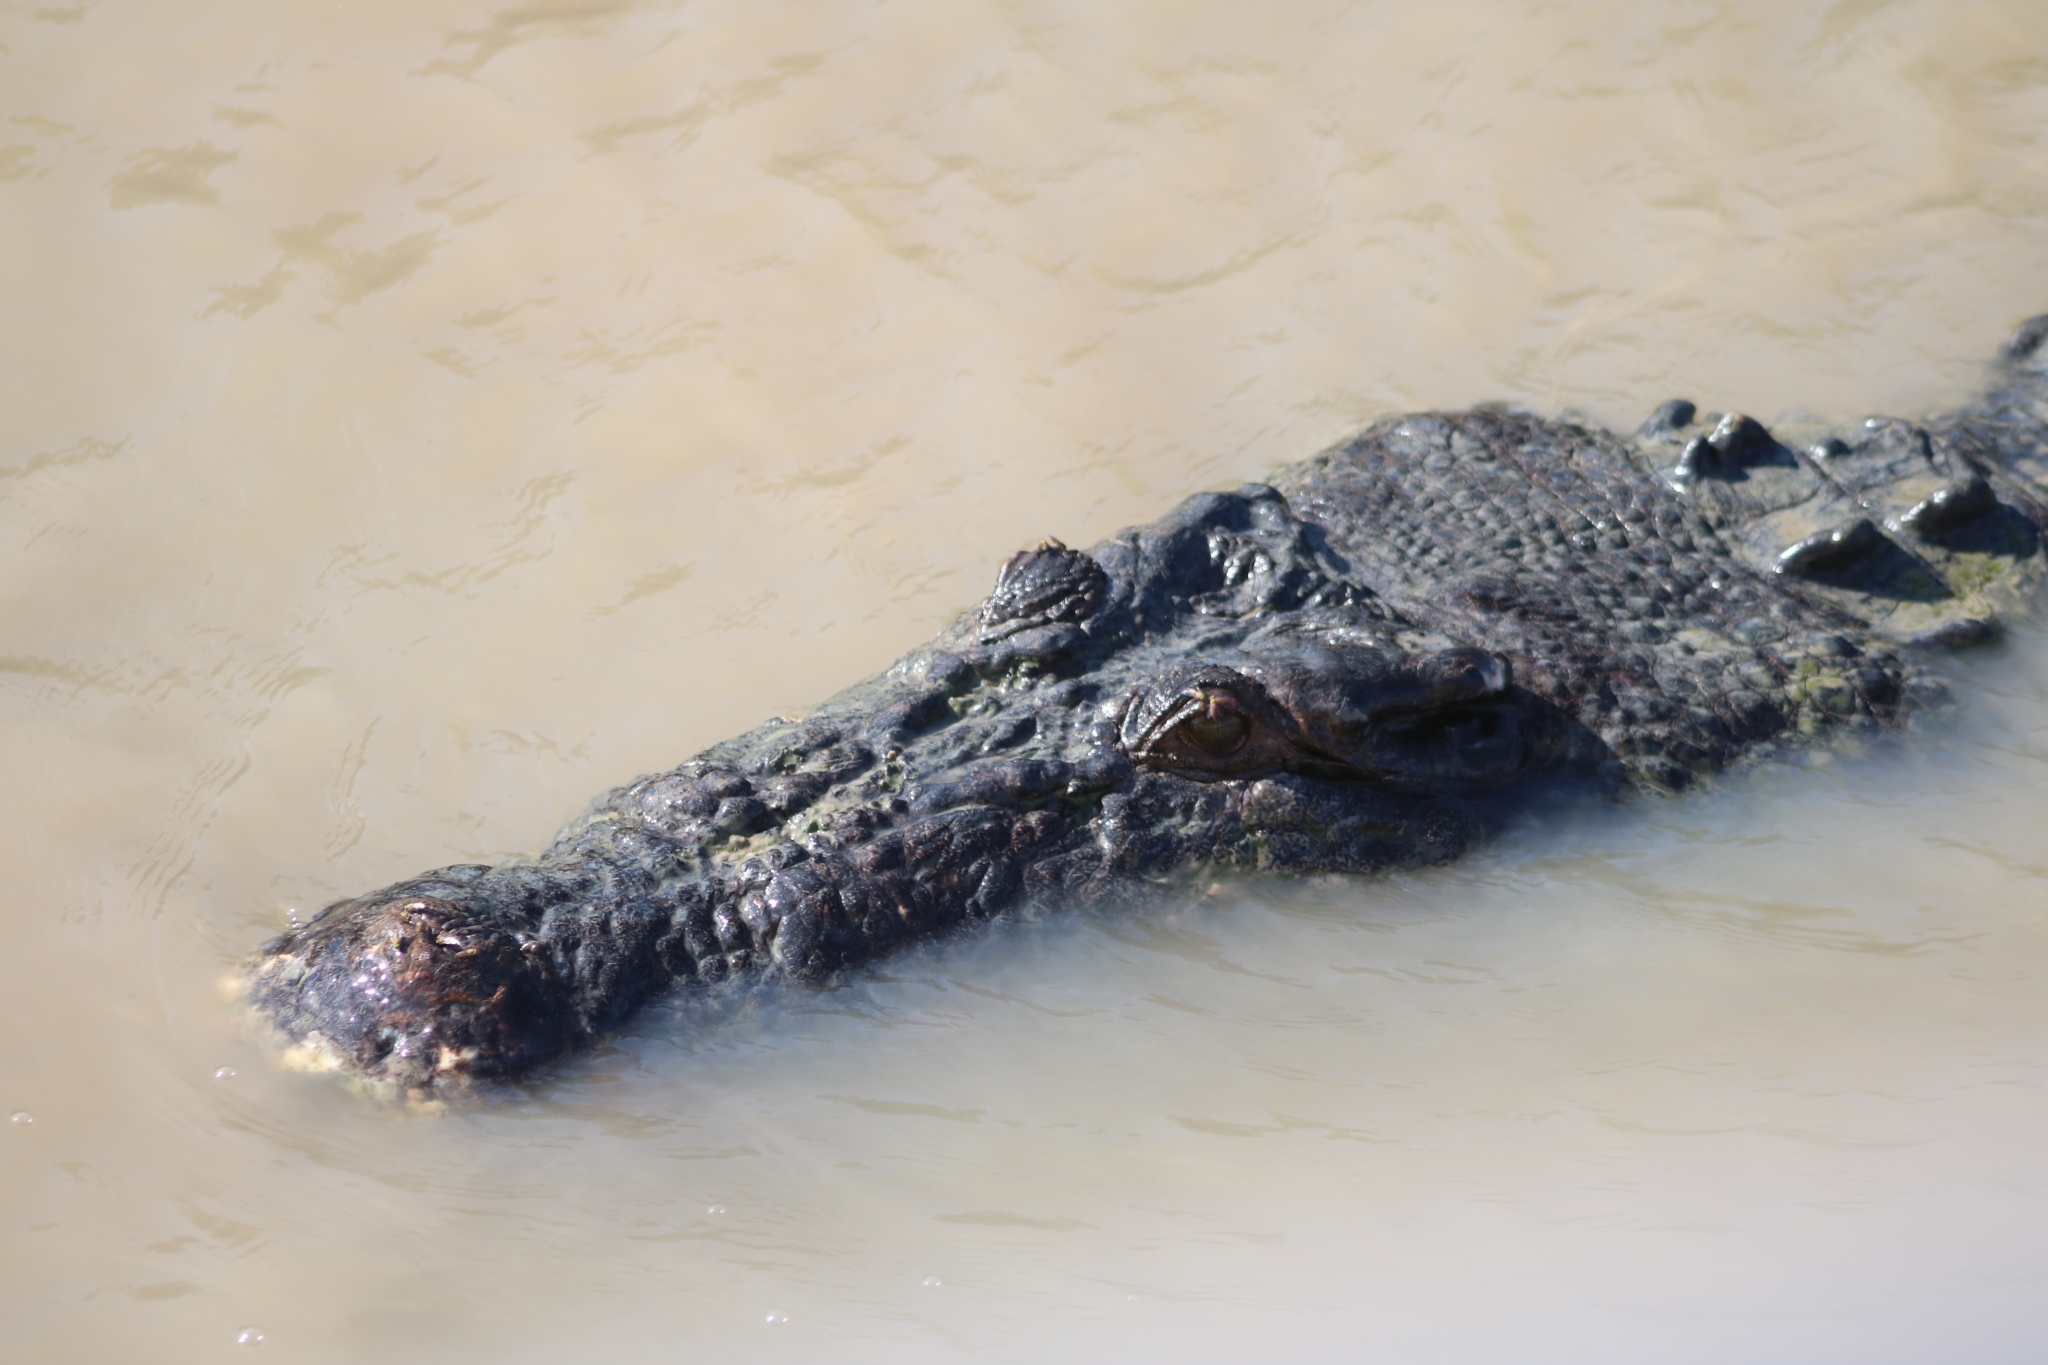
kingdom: Animalia
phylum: Chordata
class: Crocodylia
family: Crocodylidae
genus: Crocodylus
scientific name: Crocodylus porosus
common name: Saltwater crocodile
